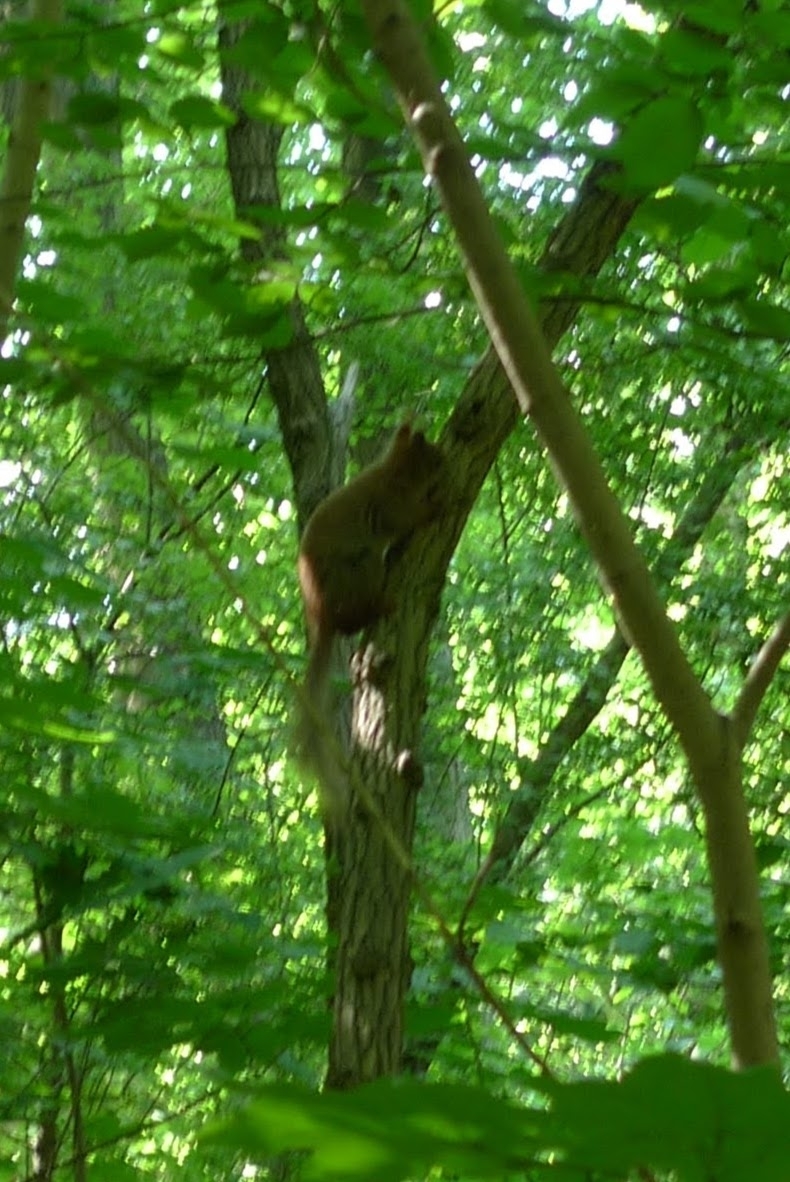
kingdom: Animalia
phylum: Chordata
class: Mammalia
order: Rodentia
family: Sciuridae
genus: Sciurus
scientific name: Sciurus vulgaris
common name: Eurasian red squirrel
